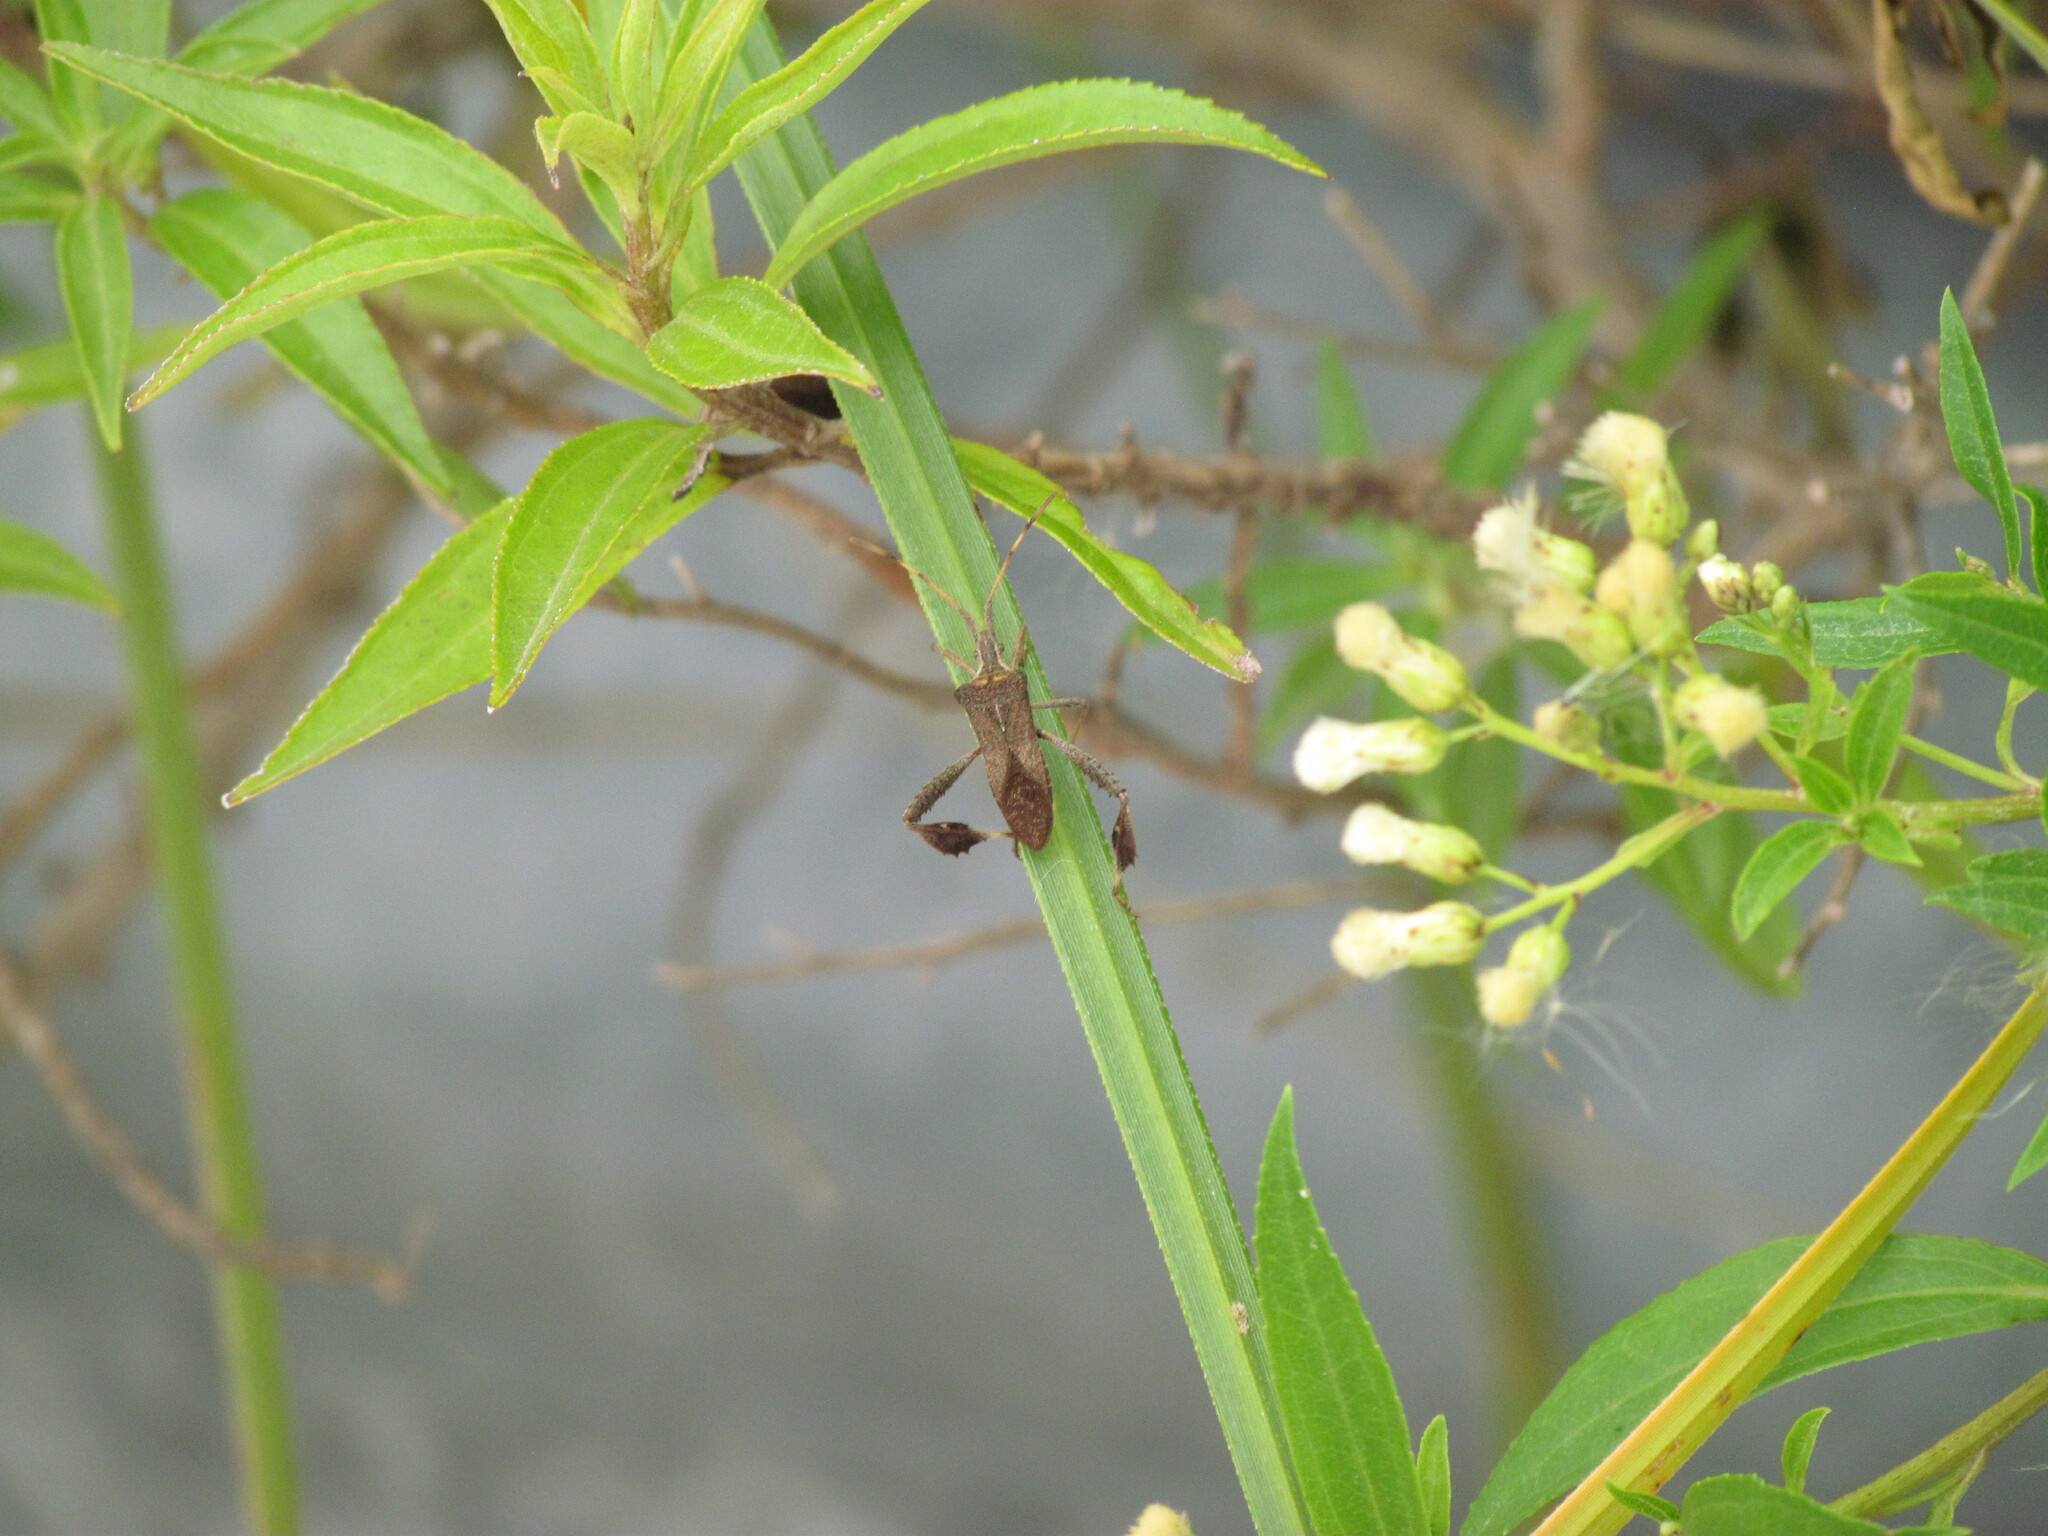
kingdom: Animalia
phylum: Arthropoda
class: Insecta
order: Hemiptera
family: Coreidae
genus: Leptoglossus
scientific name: Leptoglossus concaviusculus
